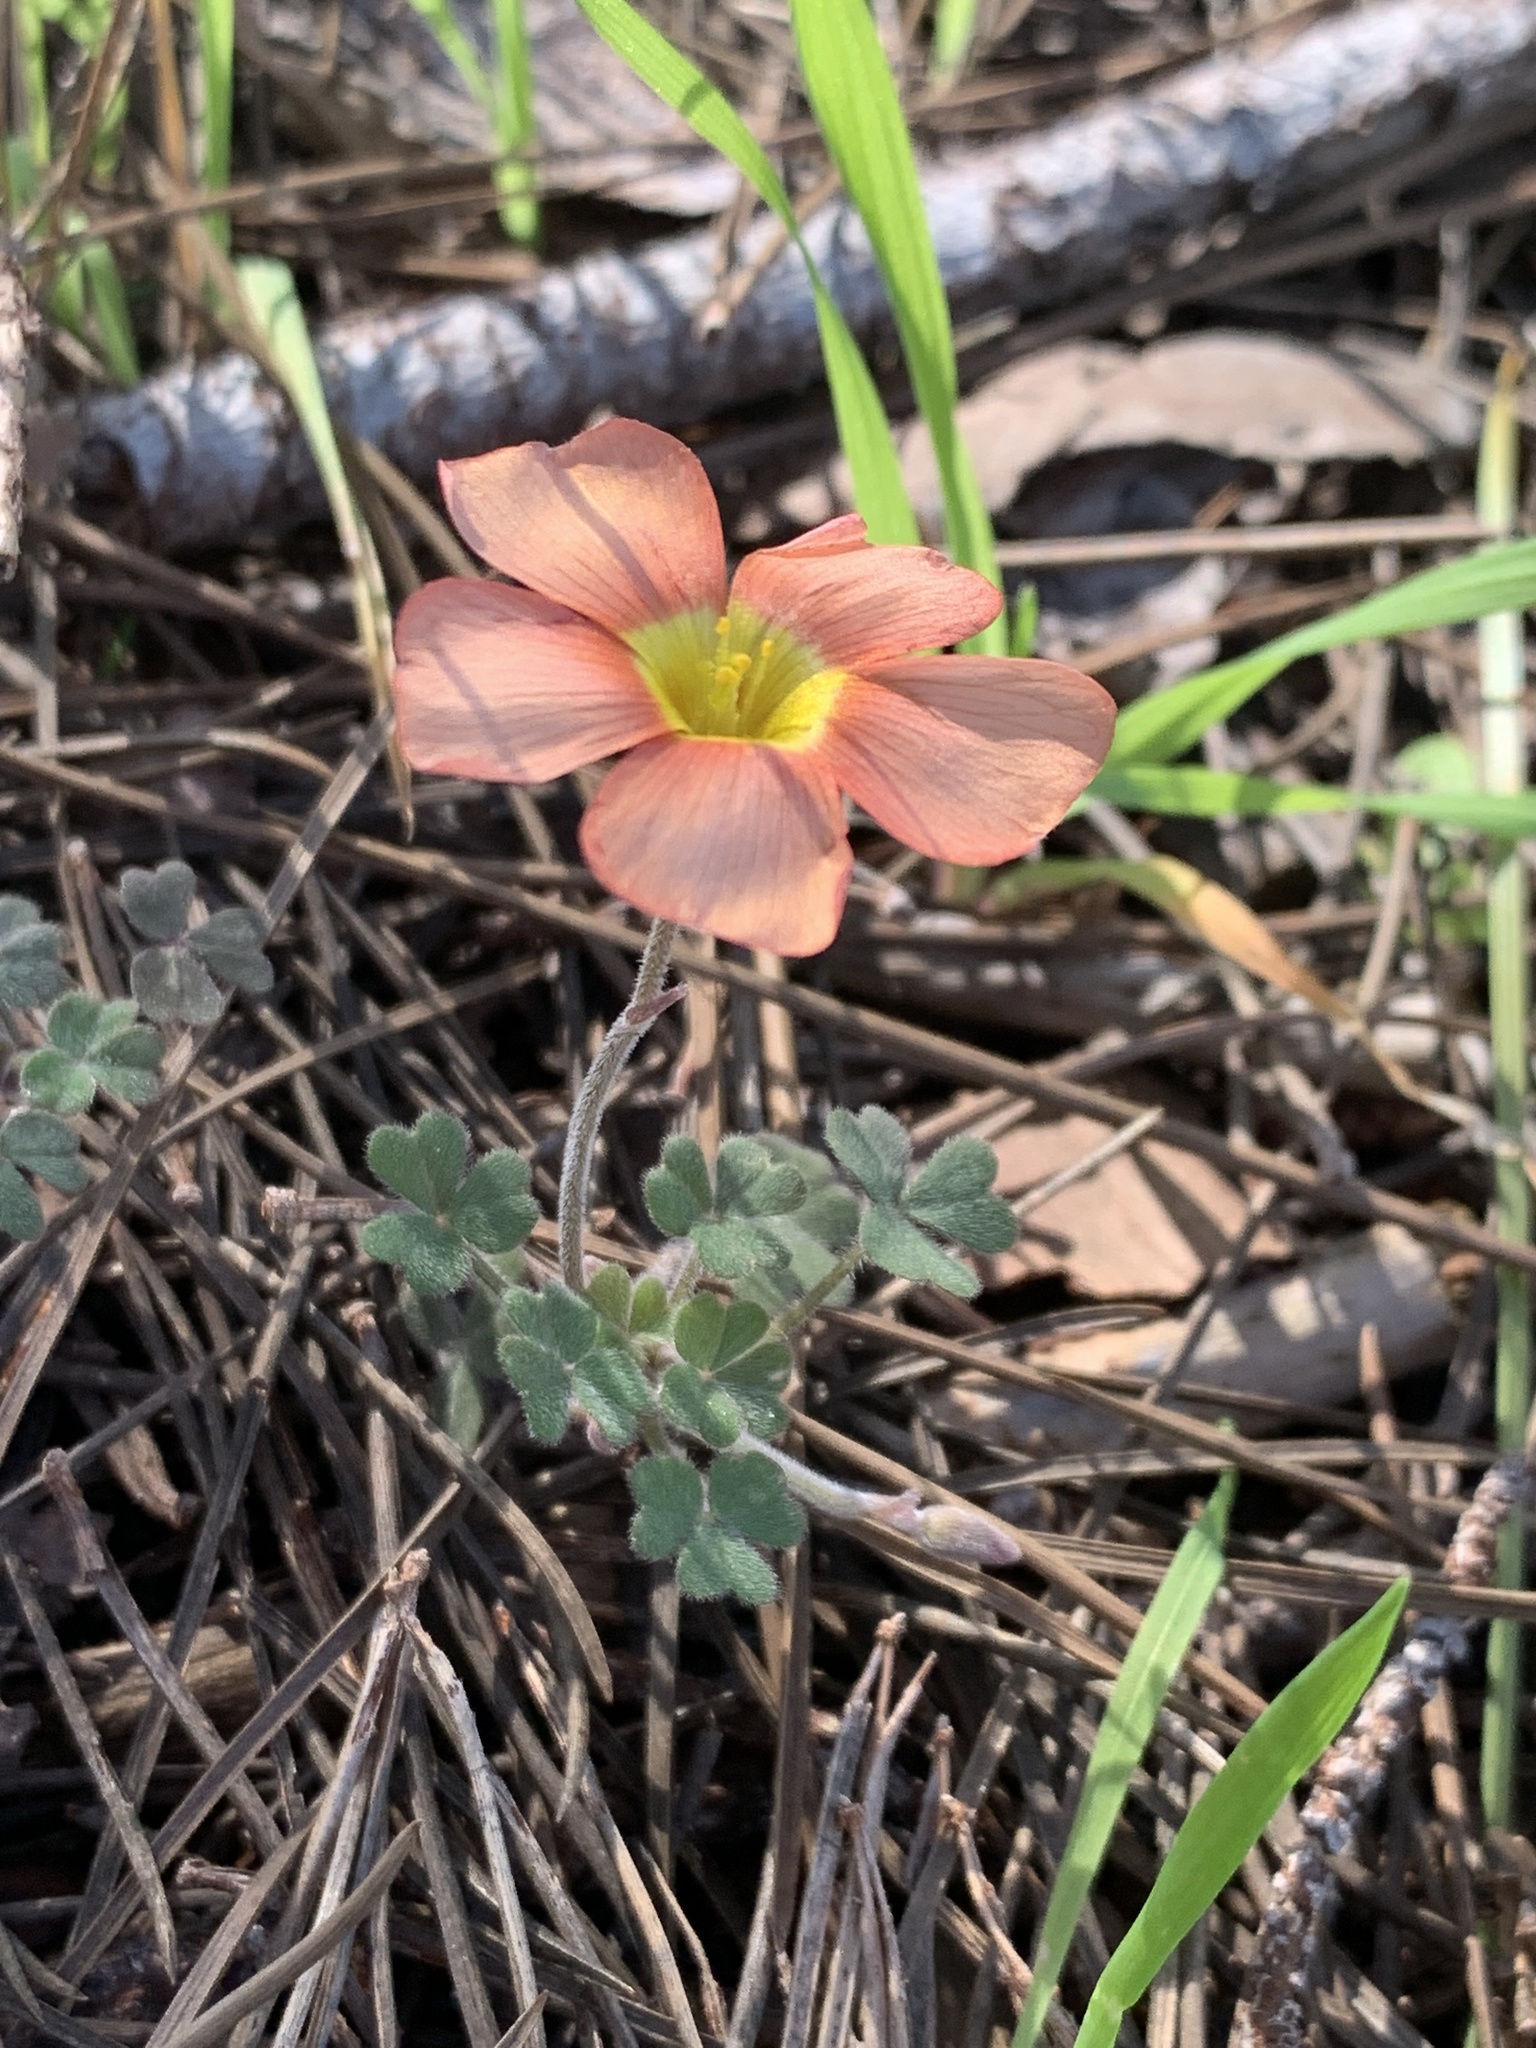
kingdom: Plantae
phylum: Tracheophyta
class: Magnoliopsida
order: Oxalidales
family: Oxalidaceae
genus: Oxalis
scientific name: Oxalis obtusa
